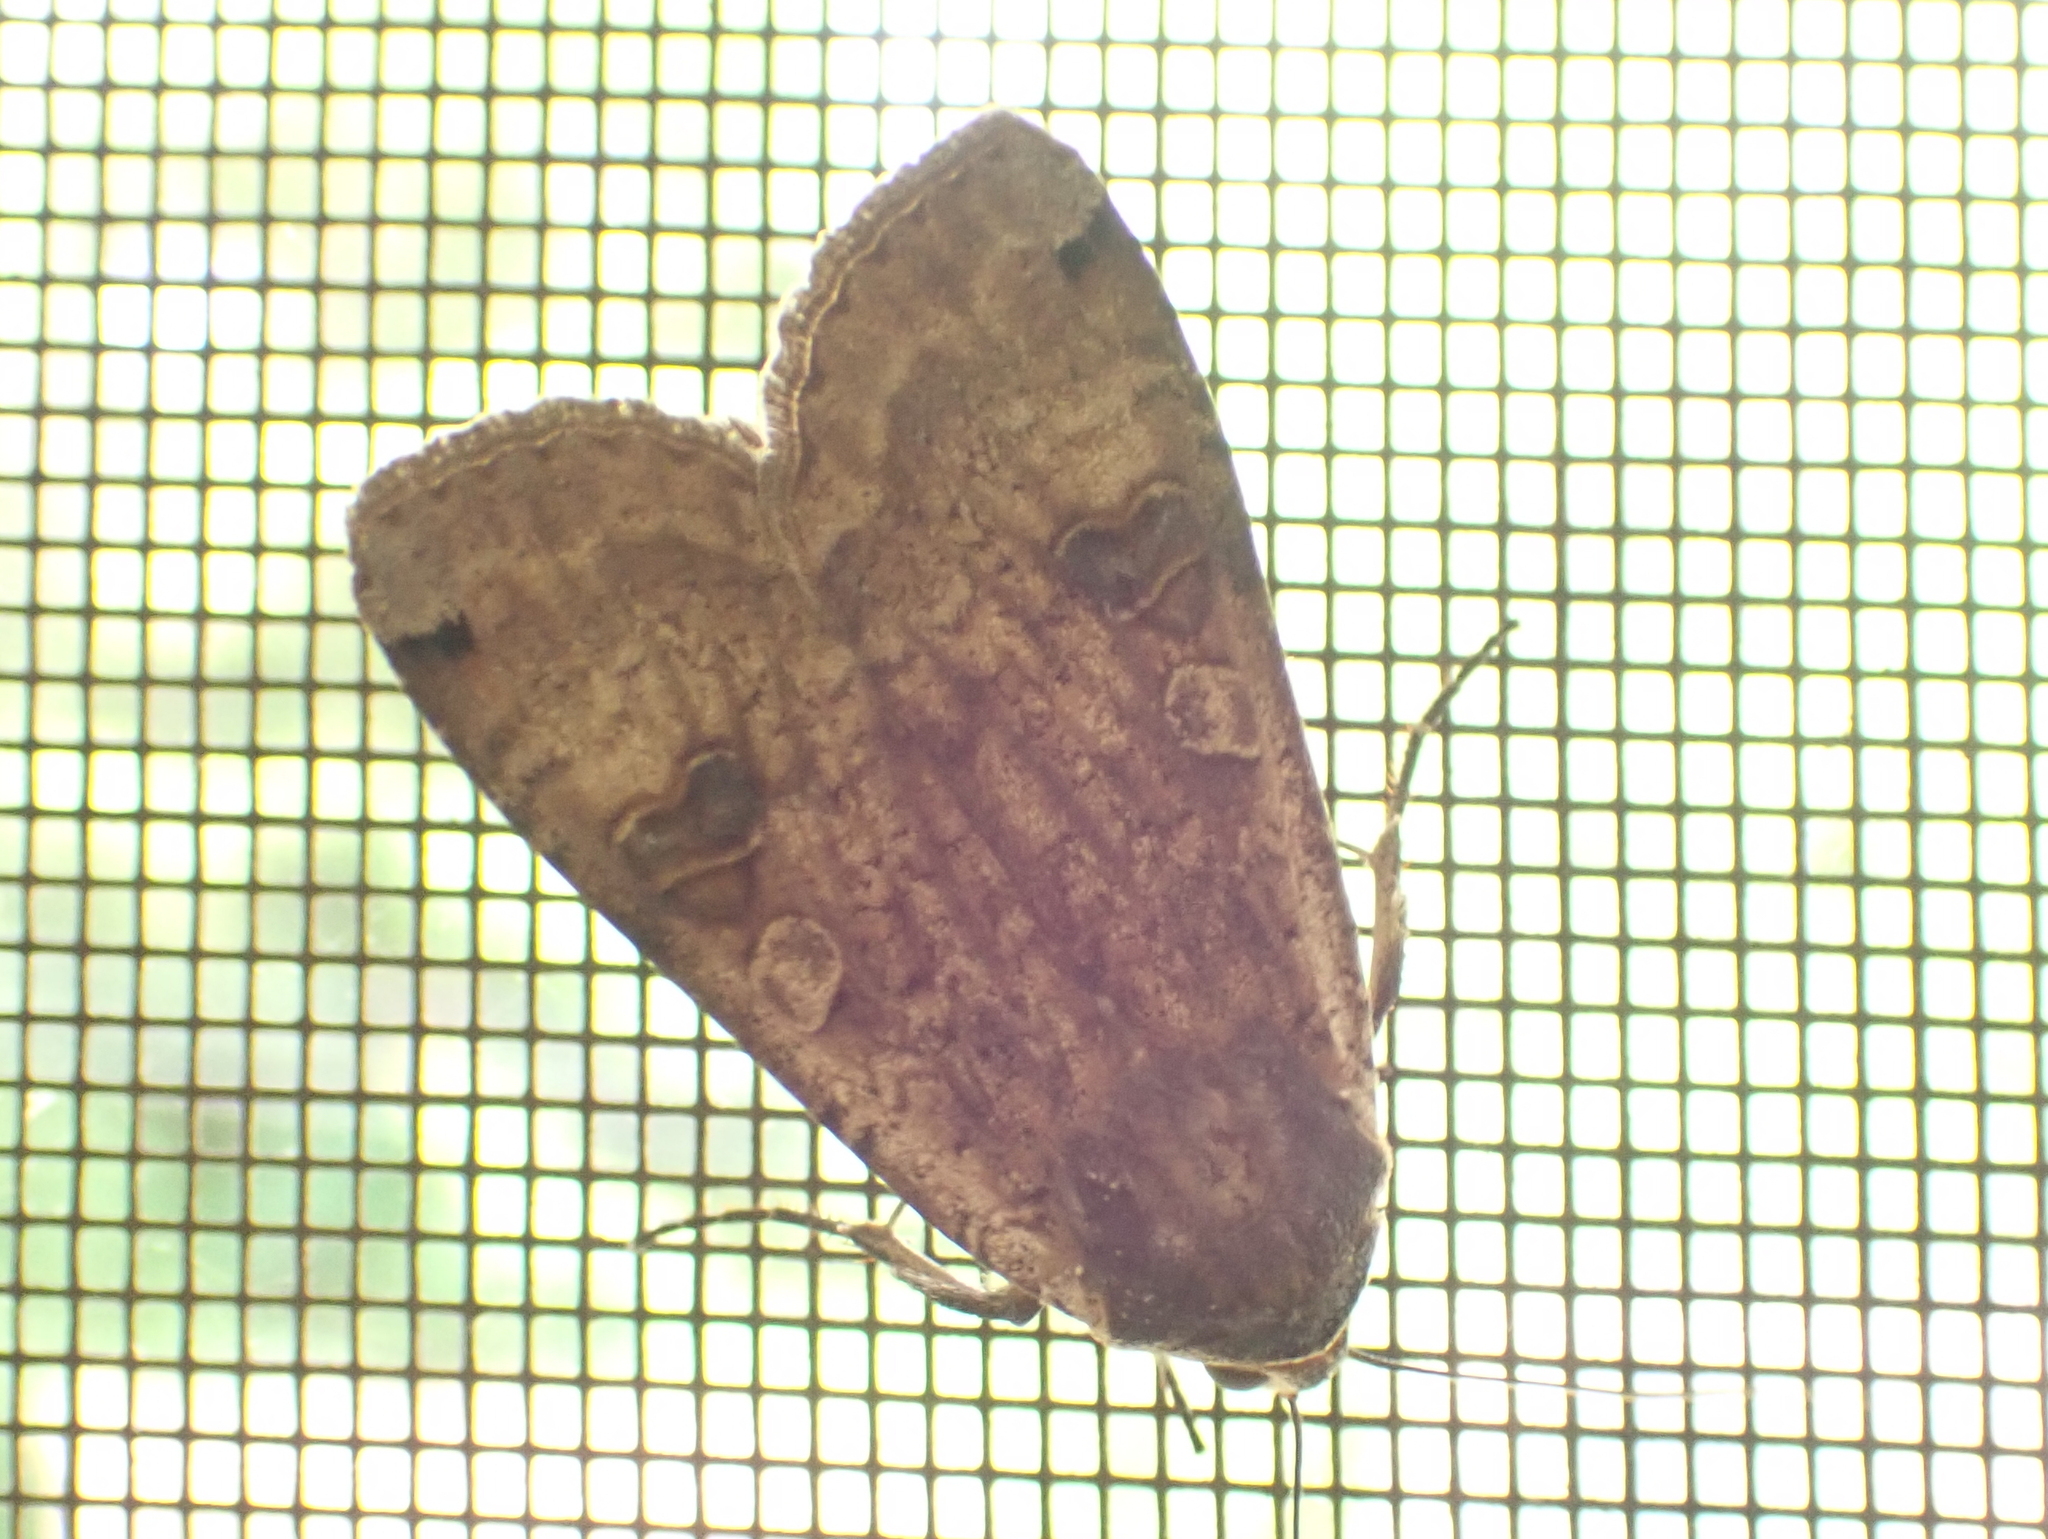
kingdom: Animalia
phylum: Arthropoda
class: Insecta
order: Lepidoptera
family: Noctuidae
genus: Noctua
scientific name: Noctua pronuba
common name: Large yellow underwing
